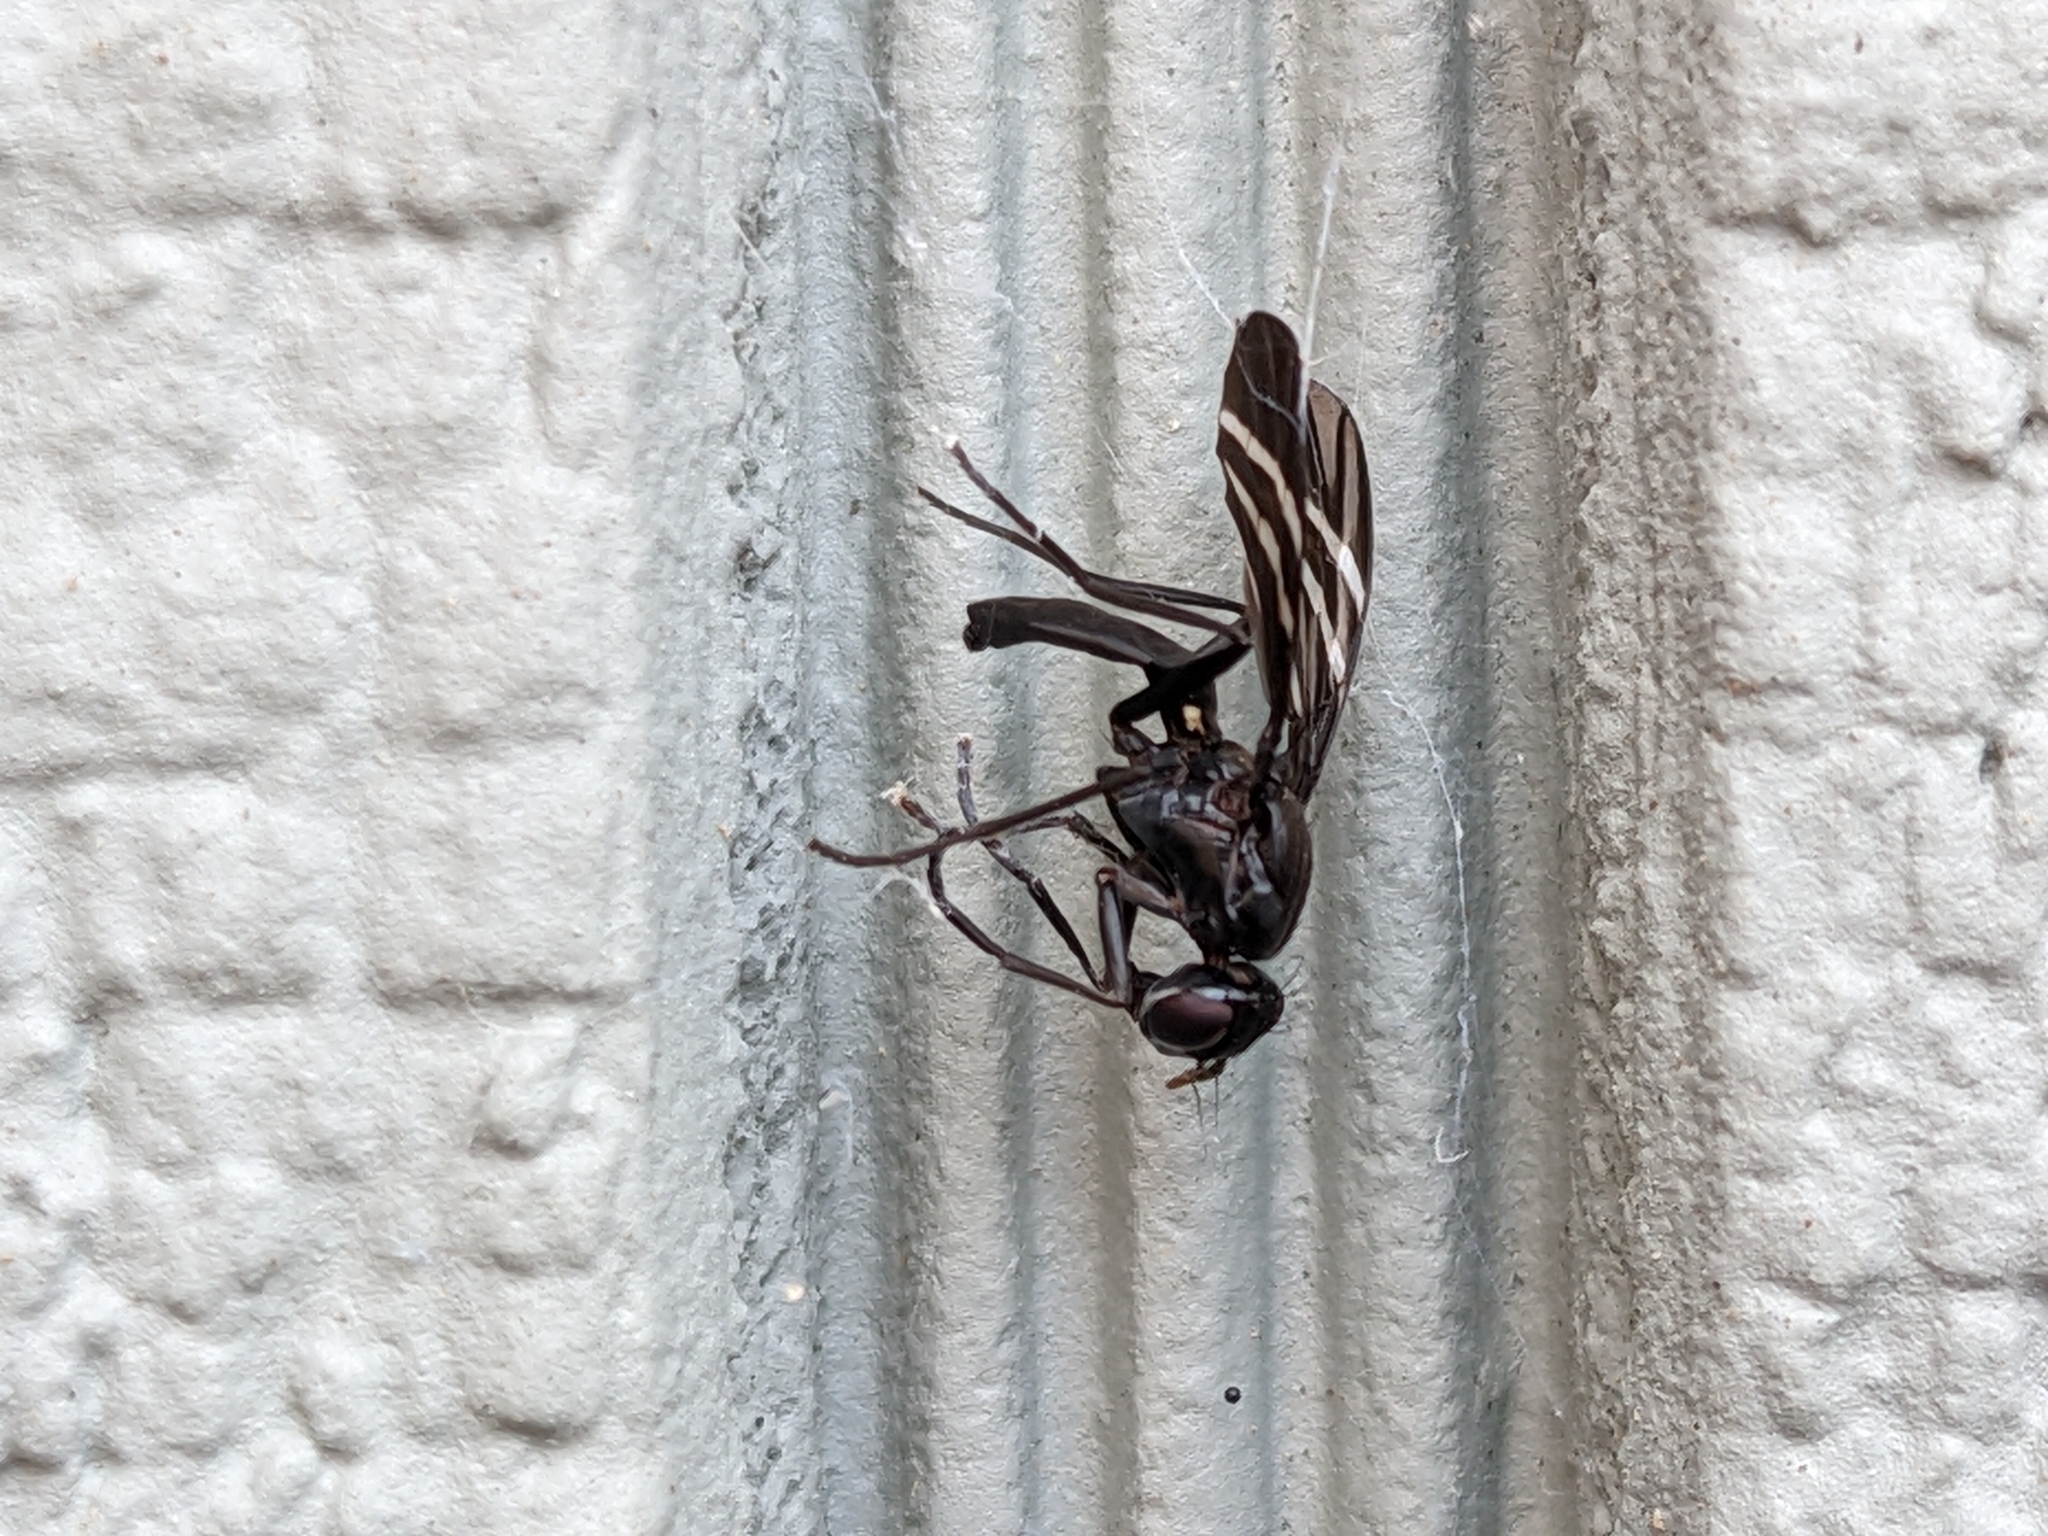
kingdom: Animalia
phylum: Arthropoda
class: Insecta
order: Diptera
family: Ulidiidae
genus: Tritoxa
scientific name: Tritoxa flexa
